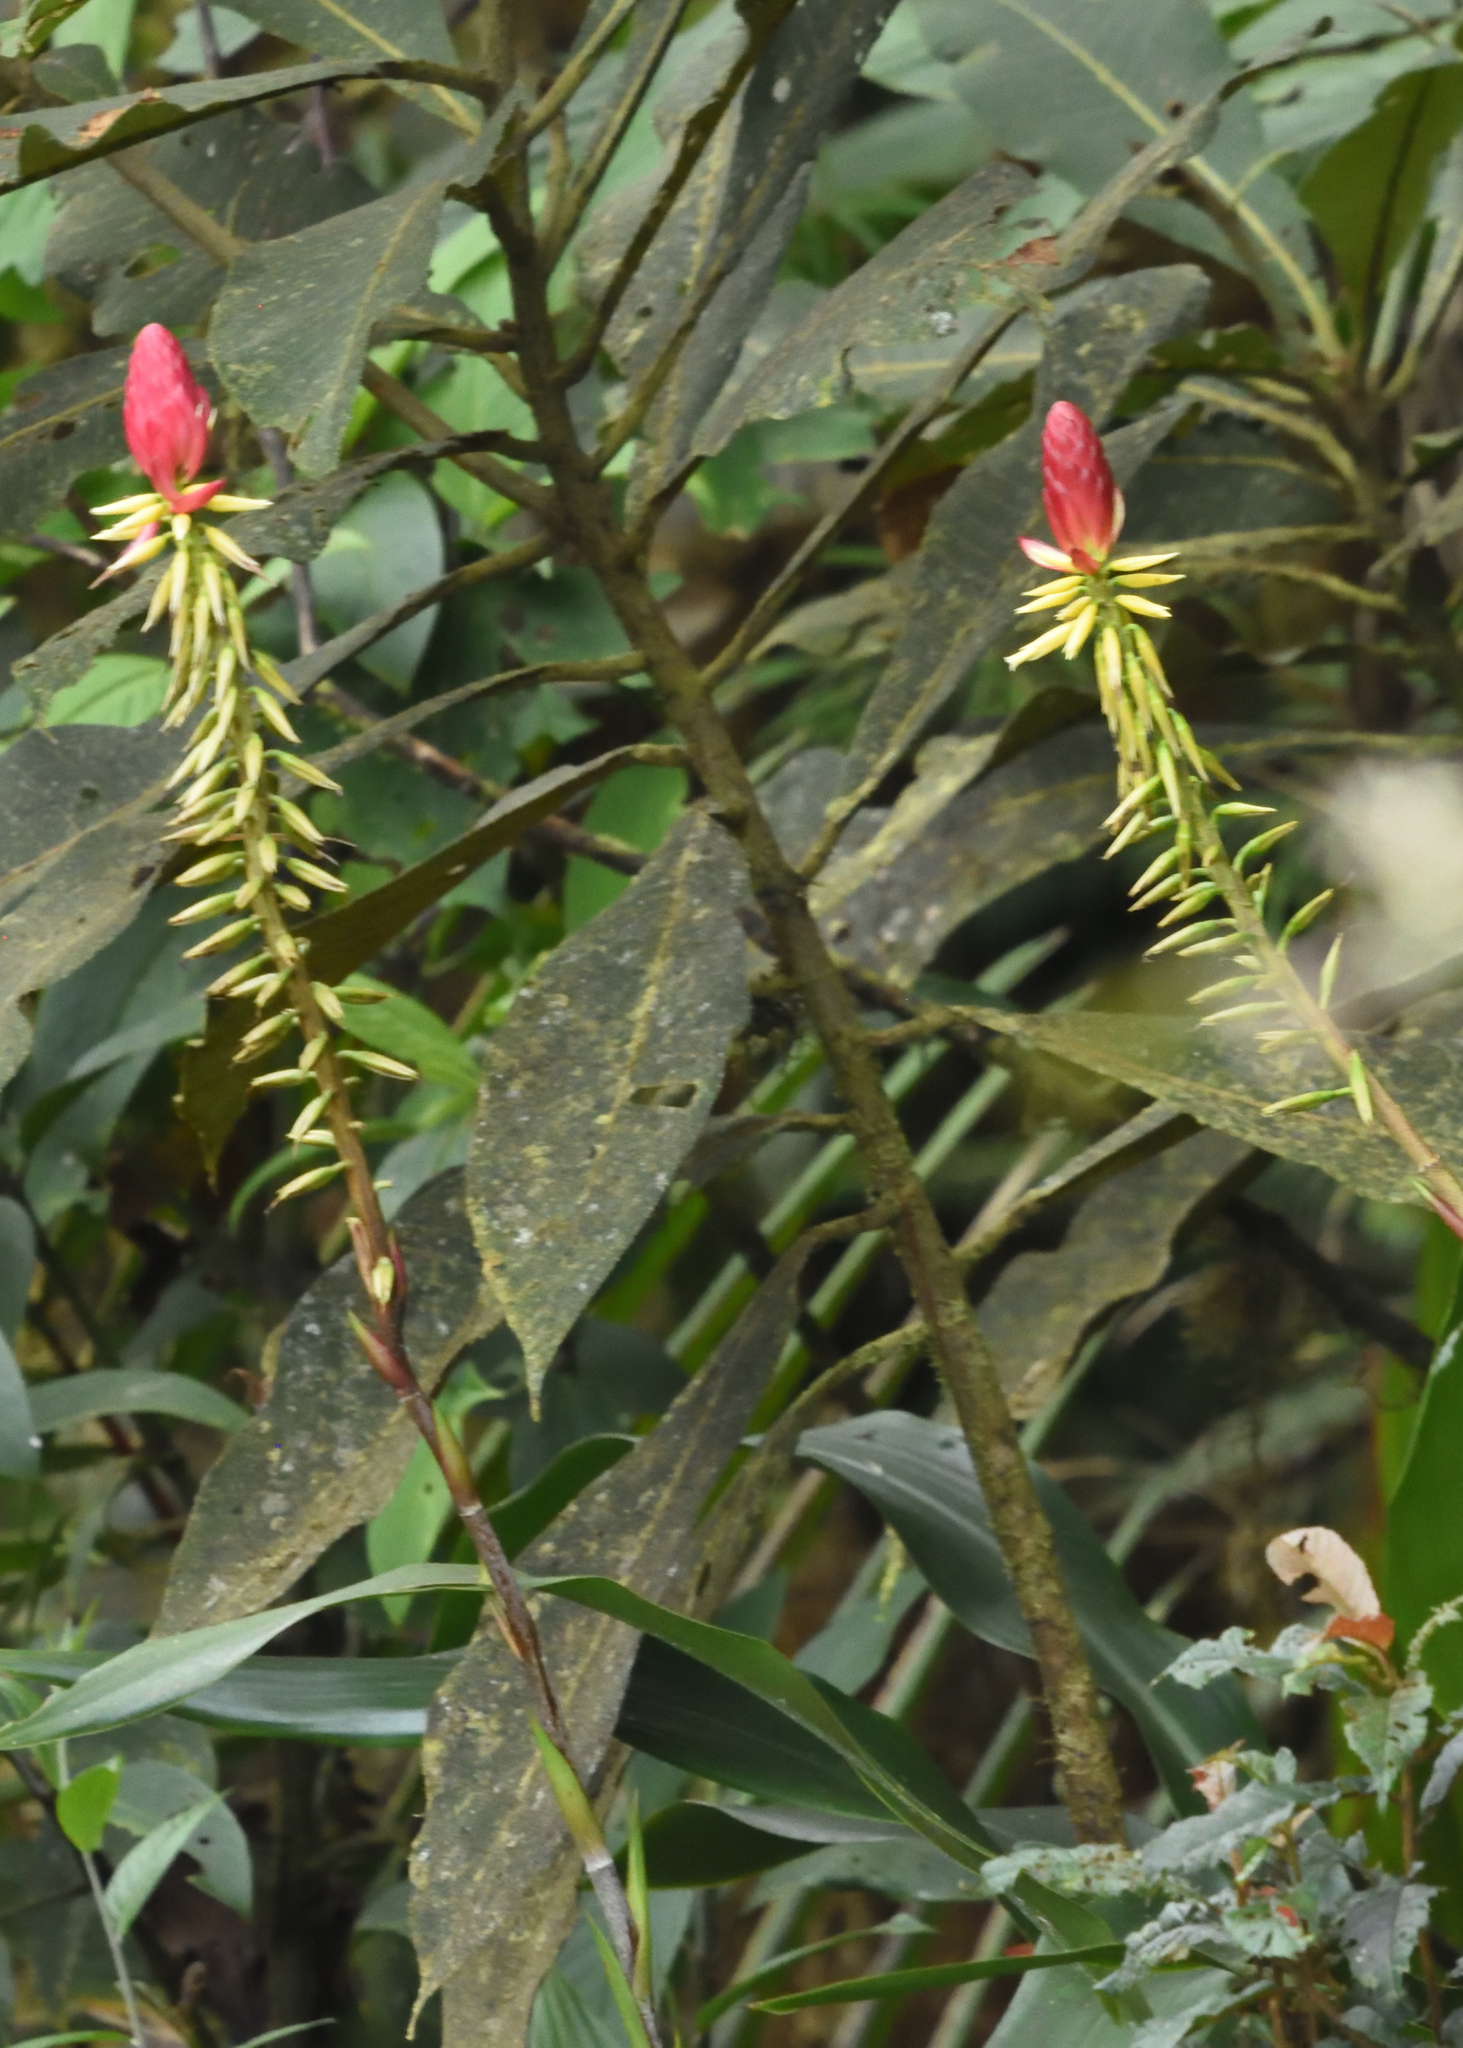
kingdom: Plantae
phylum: Tracheophyta
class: Liliopsida
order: Poales
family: Bromeliaceae
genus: Pitcairnia
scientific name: Pitcairnia kniphofioides
